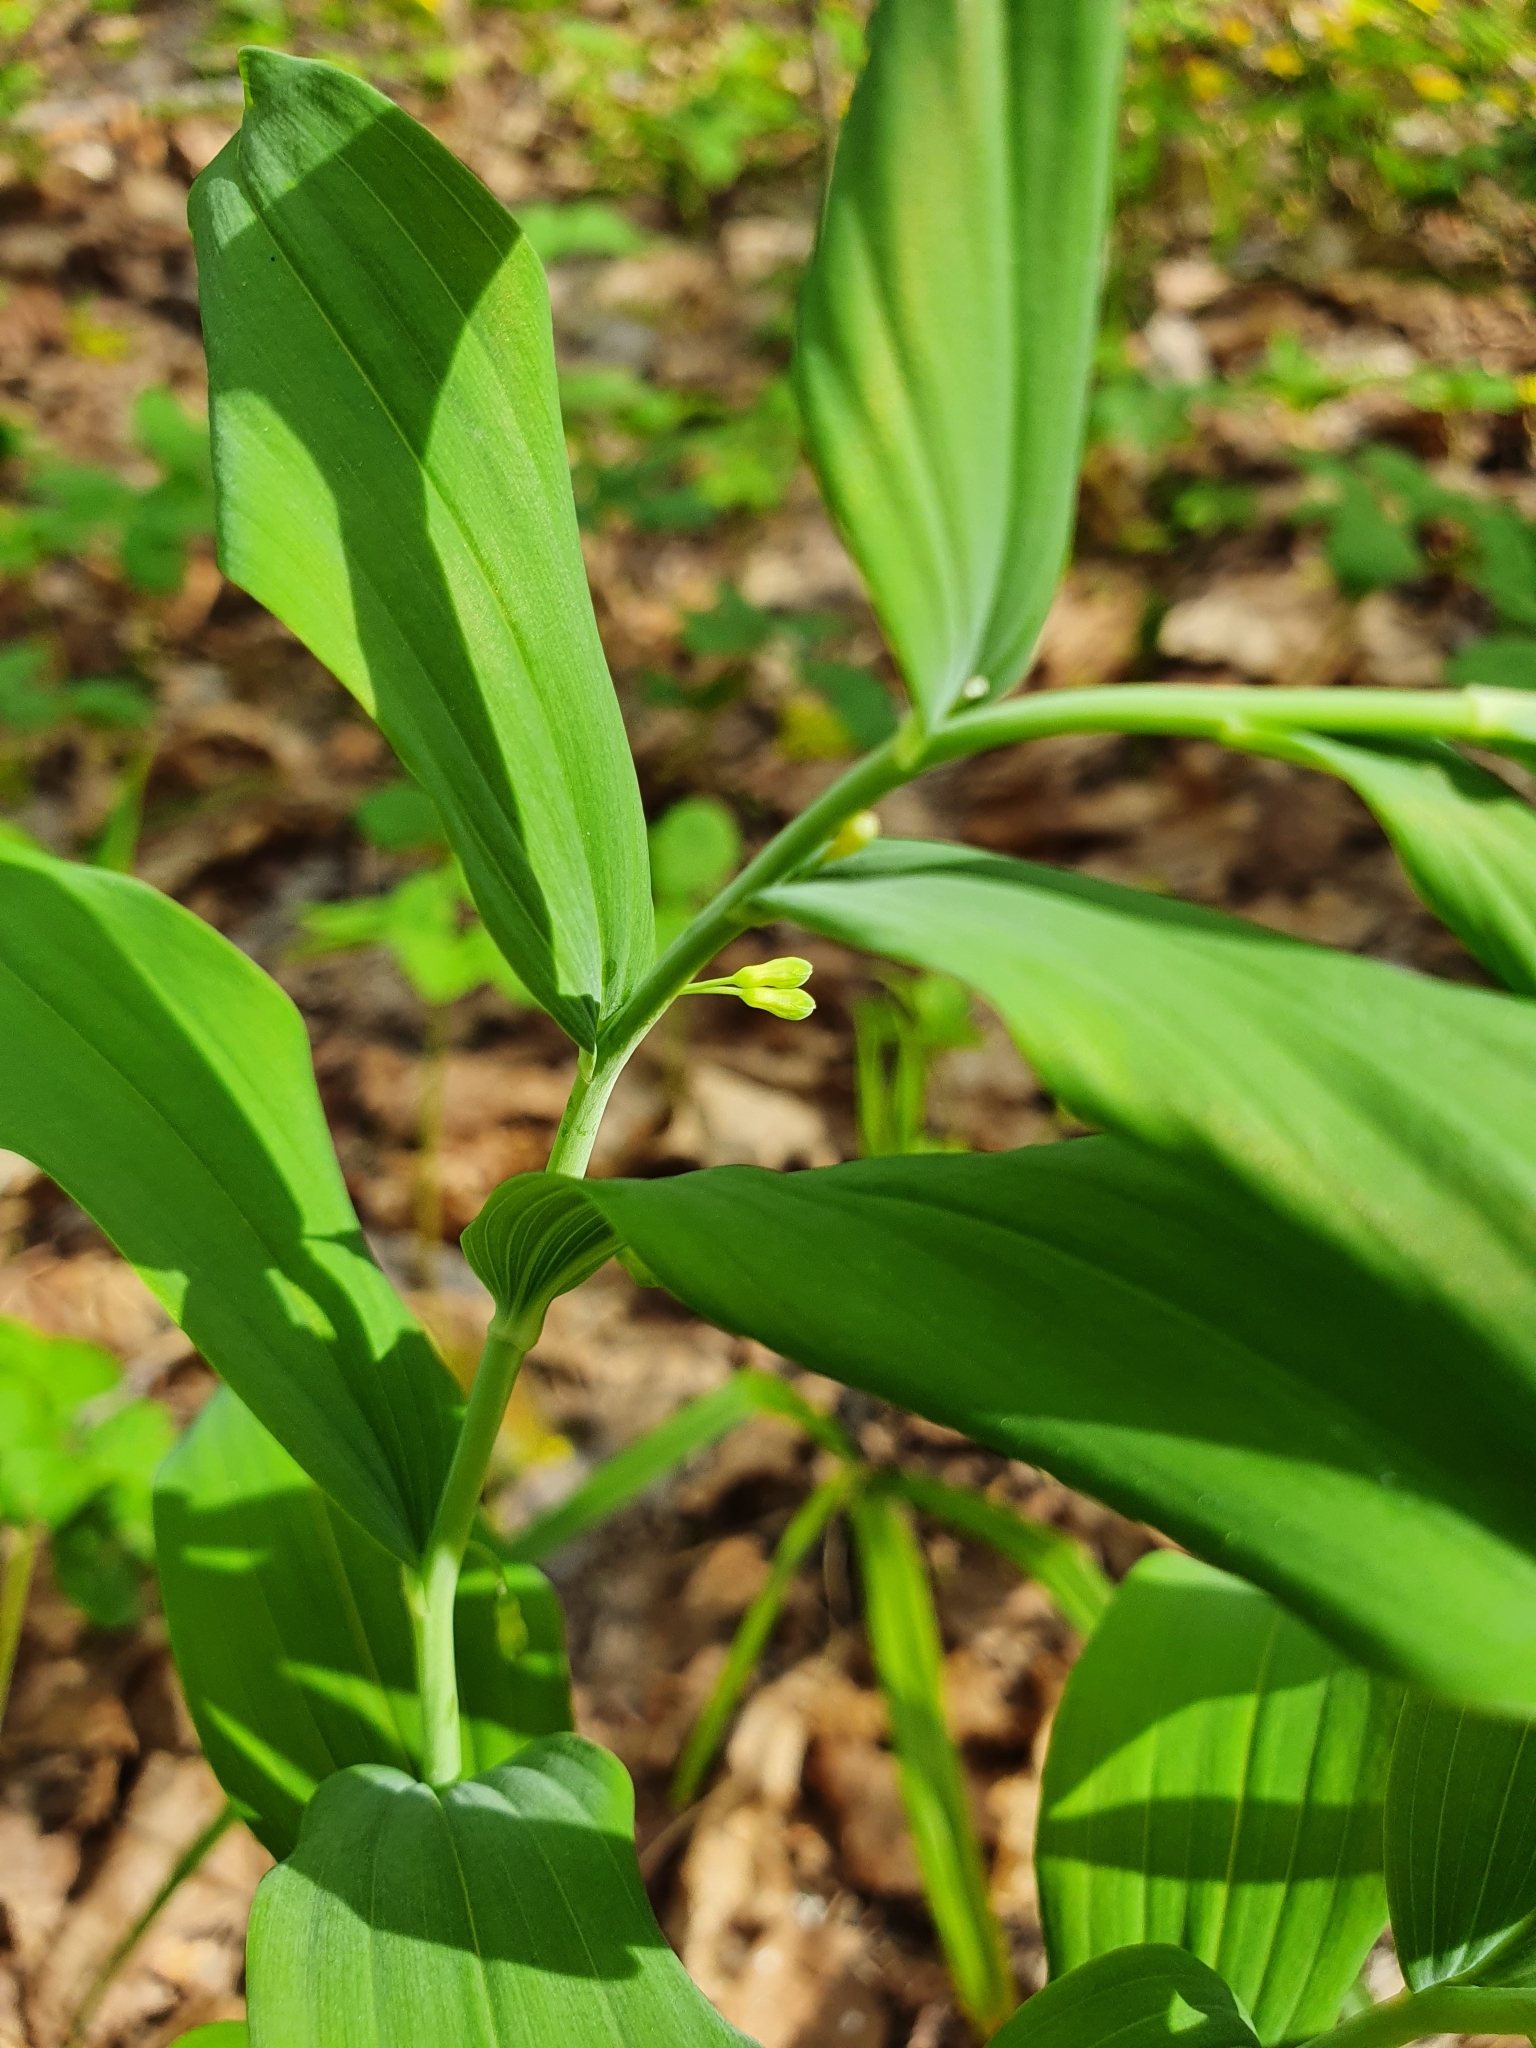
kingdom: Plantae
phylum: Tracheophyta
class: Liliopsida
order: Asparagales
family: Asparagaceae
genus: Polygonatum
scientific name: Polygonatum odoratum
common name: Angular solomon's-seal
